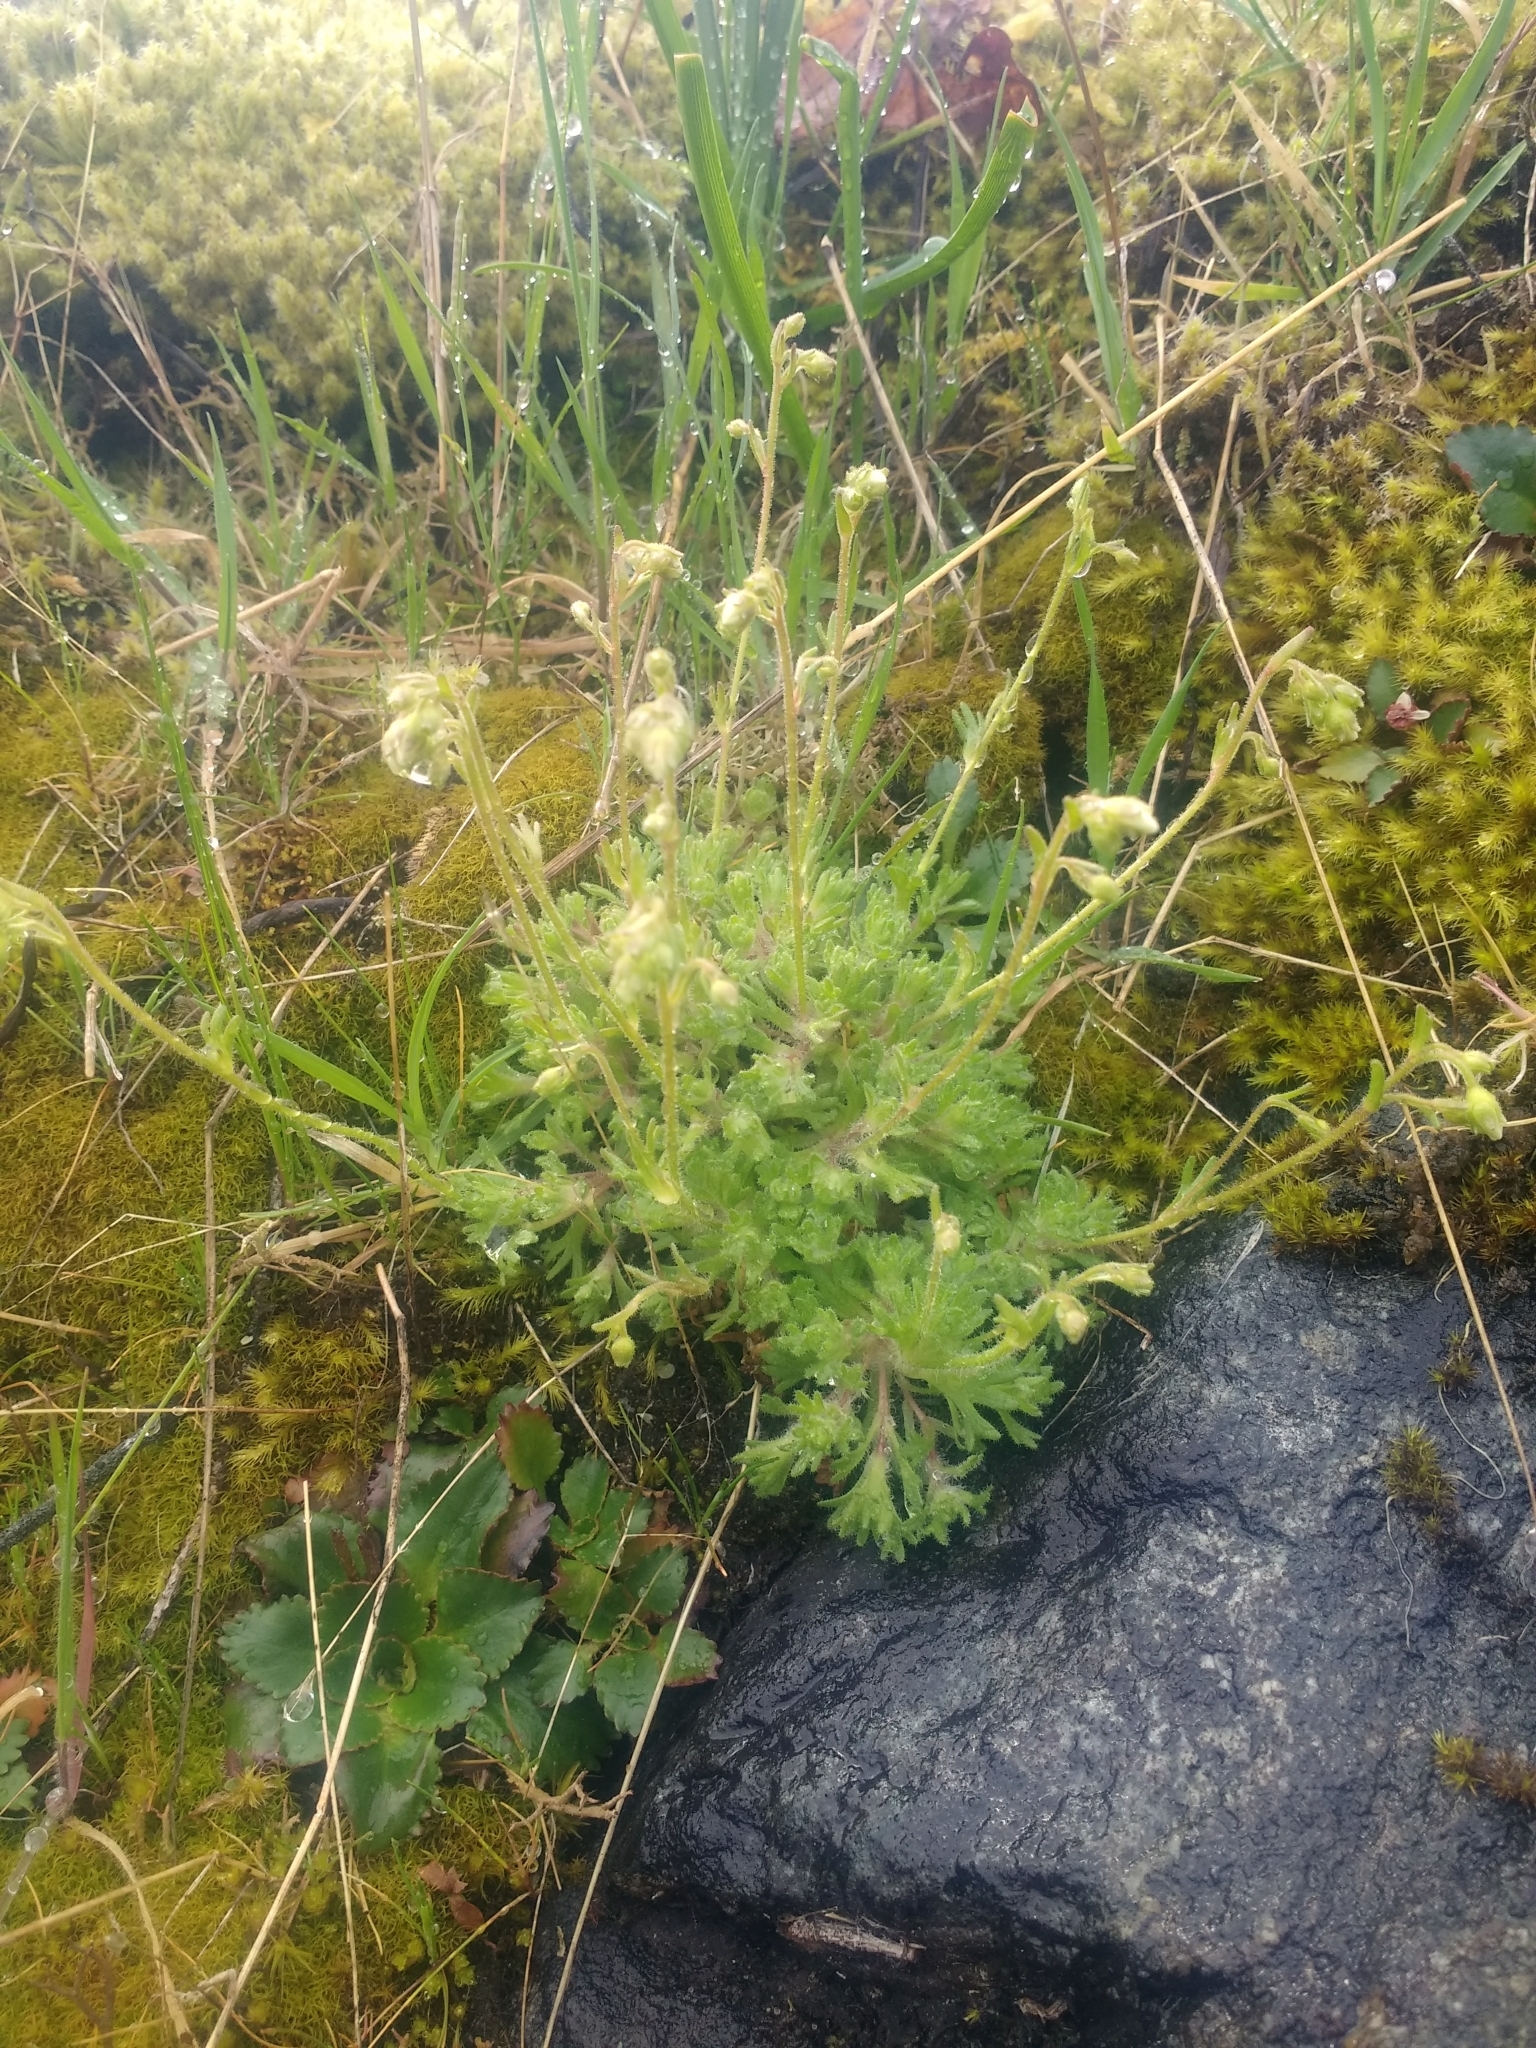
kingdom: Plantae
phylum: Tracheophyta
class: Magnoliopsida
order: Saxifragales
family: Saxifragaceae
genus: Saxifraga
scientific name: Saxifraga cespitosa
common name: Tufted saxifrage
